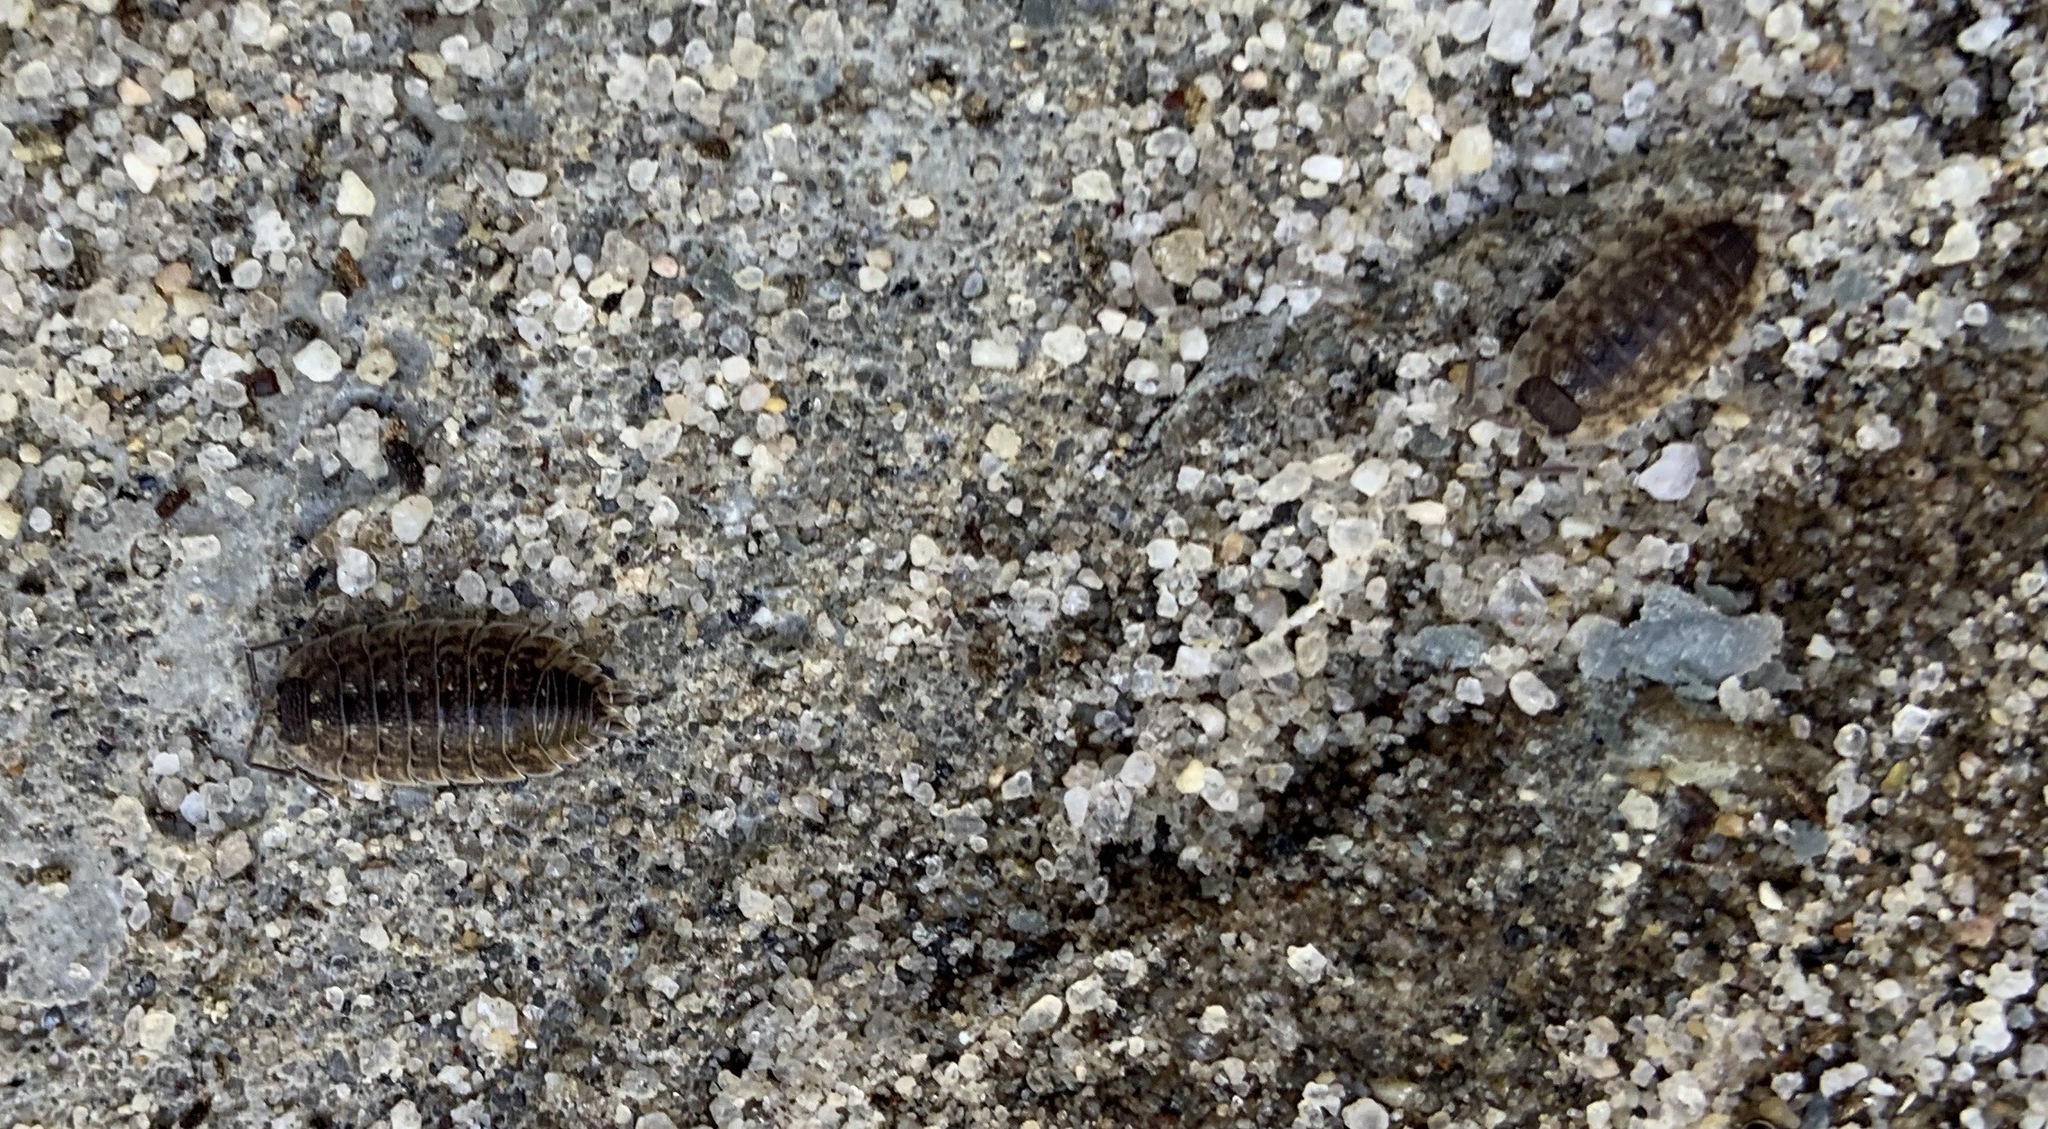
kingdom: Animalia
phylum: Arthropoda
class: Malacostraca
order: Isopoda
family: Porcellionidae
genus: Porcellio
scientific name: Porcellio spinicornis
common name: Painted woodlouse
